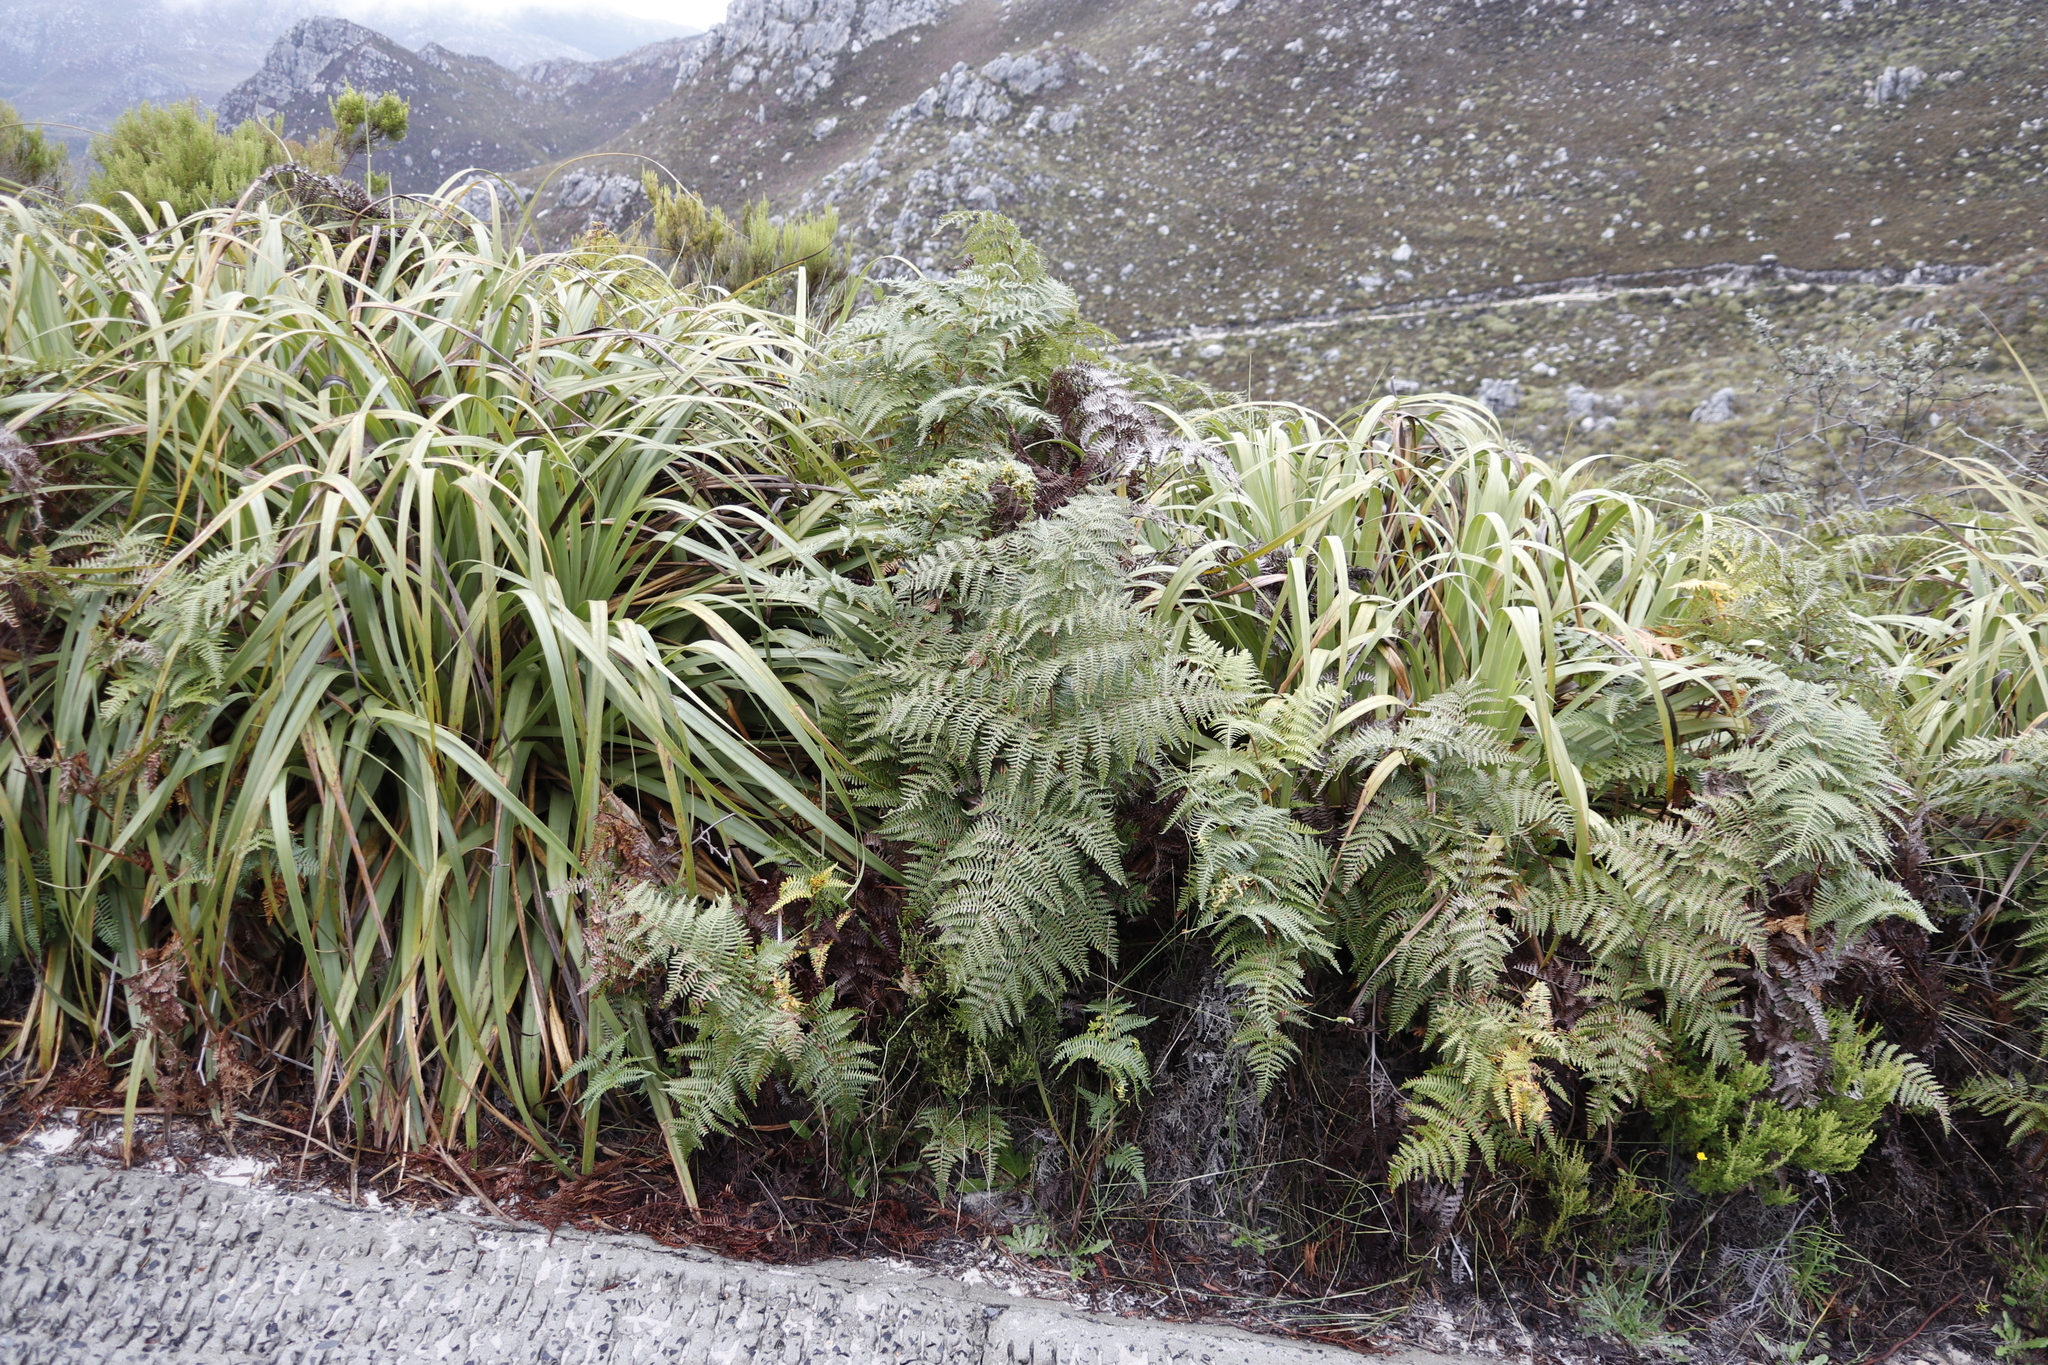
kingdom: Plantae
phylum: Tracheophyta
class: Liliopsida
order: Poales
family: Cyperaceae
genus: Tetraria
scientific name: Tetraria thermalis
